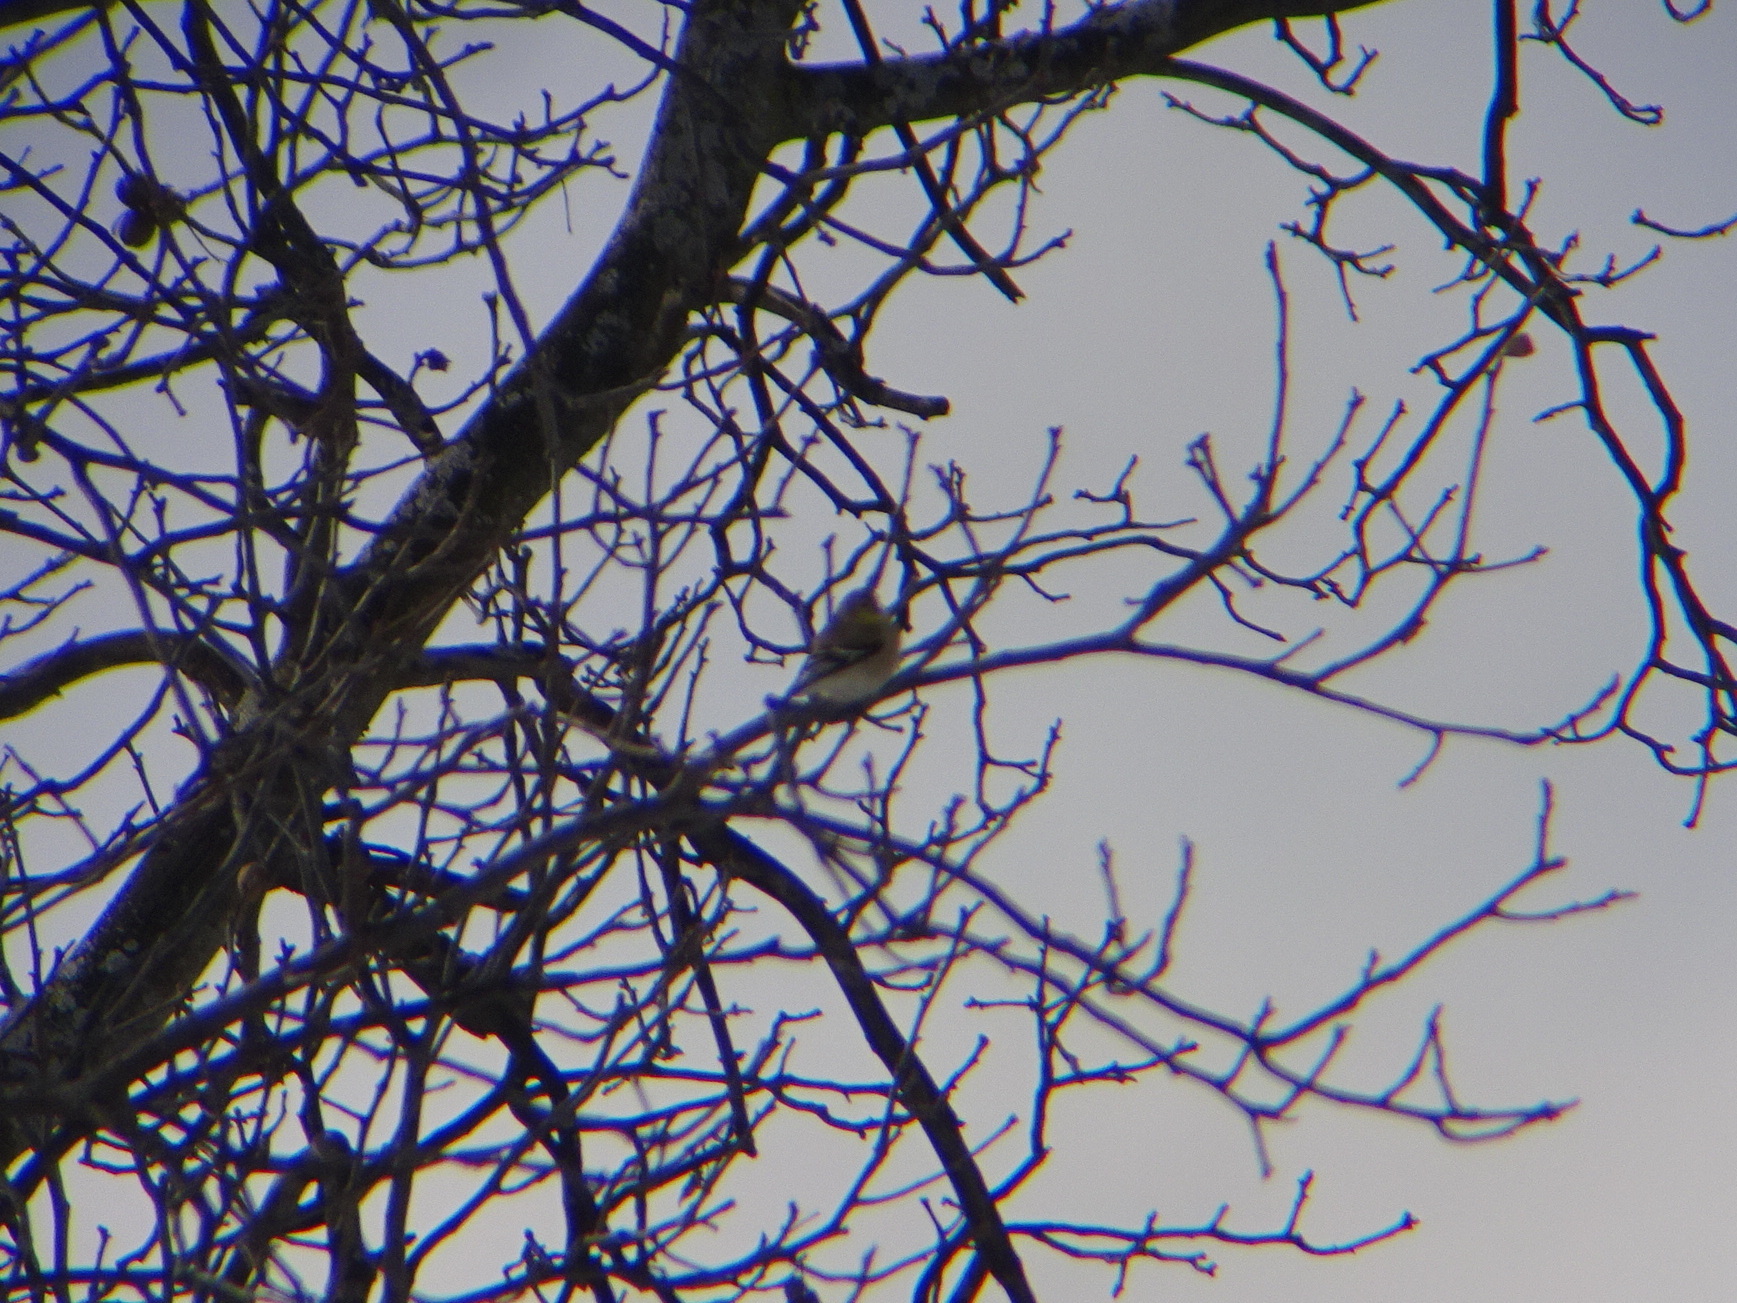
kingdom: Animalia
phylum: Chordata
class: Aves
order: Passeriformes
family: Fringillidae
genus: Spinus
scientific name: Spinus tristis
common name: American goldfinch
